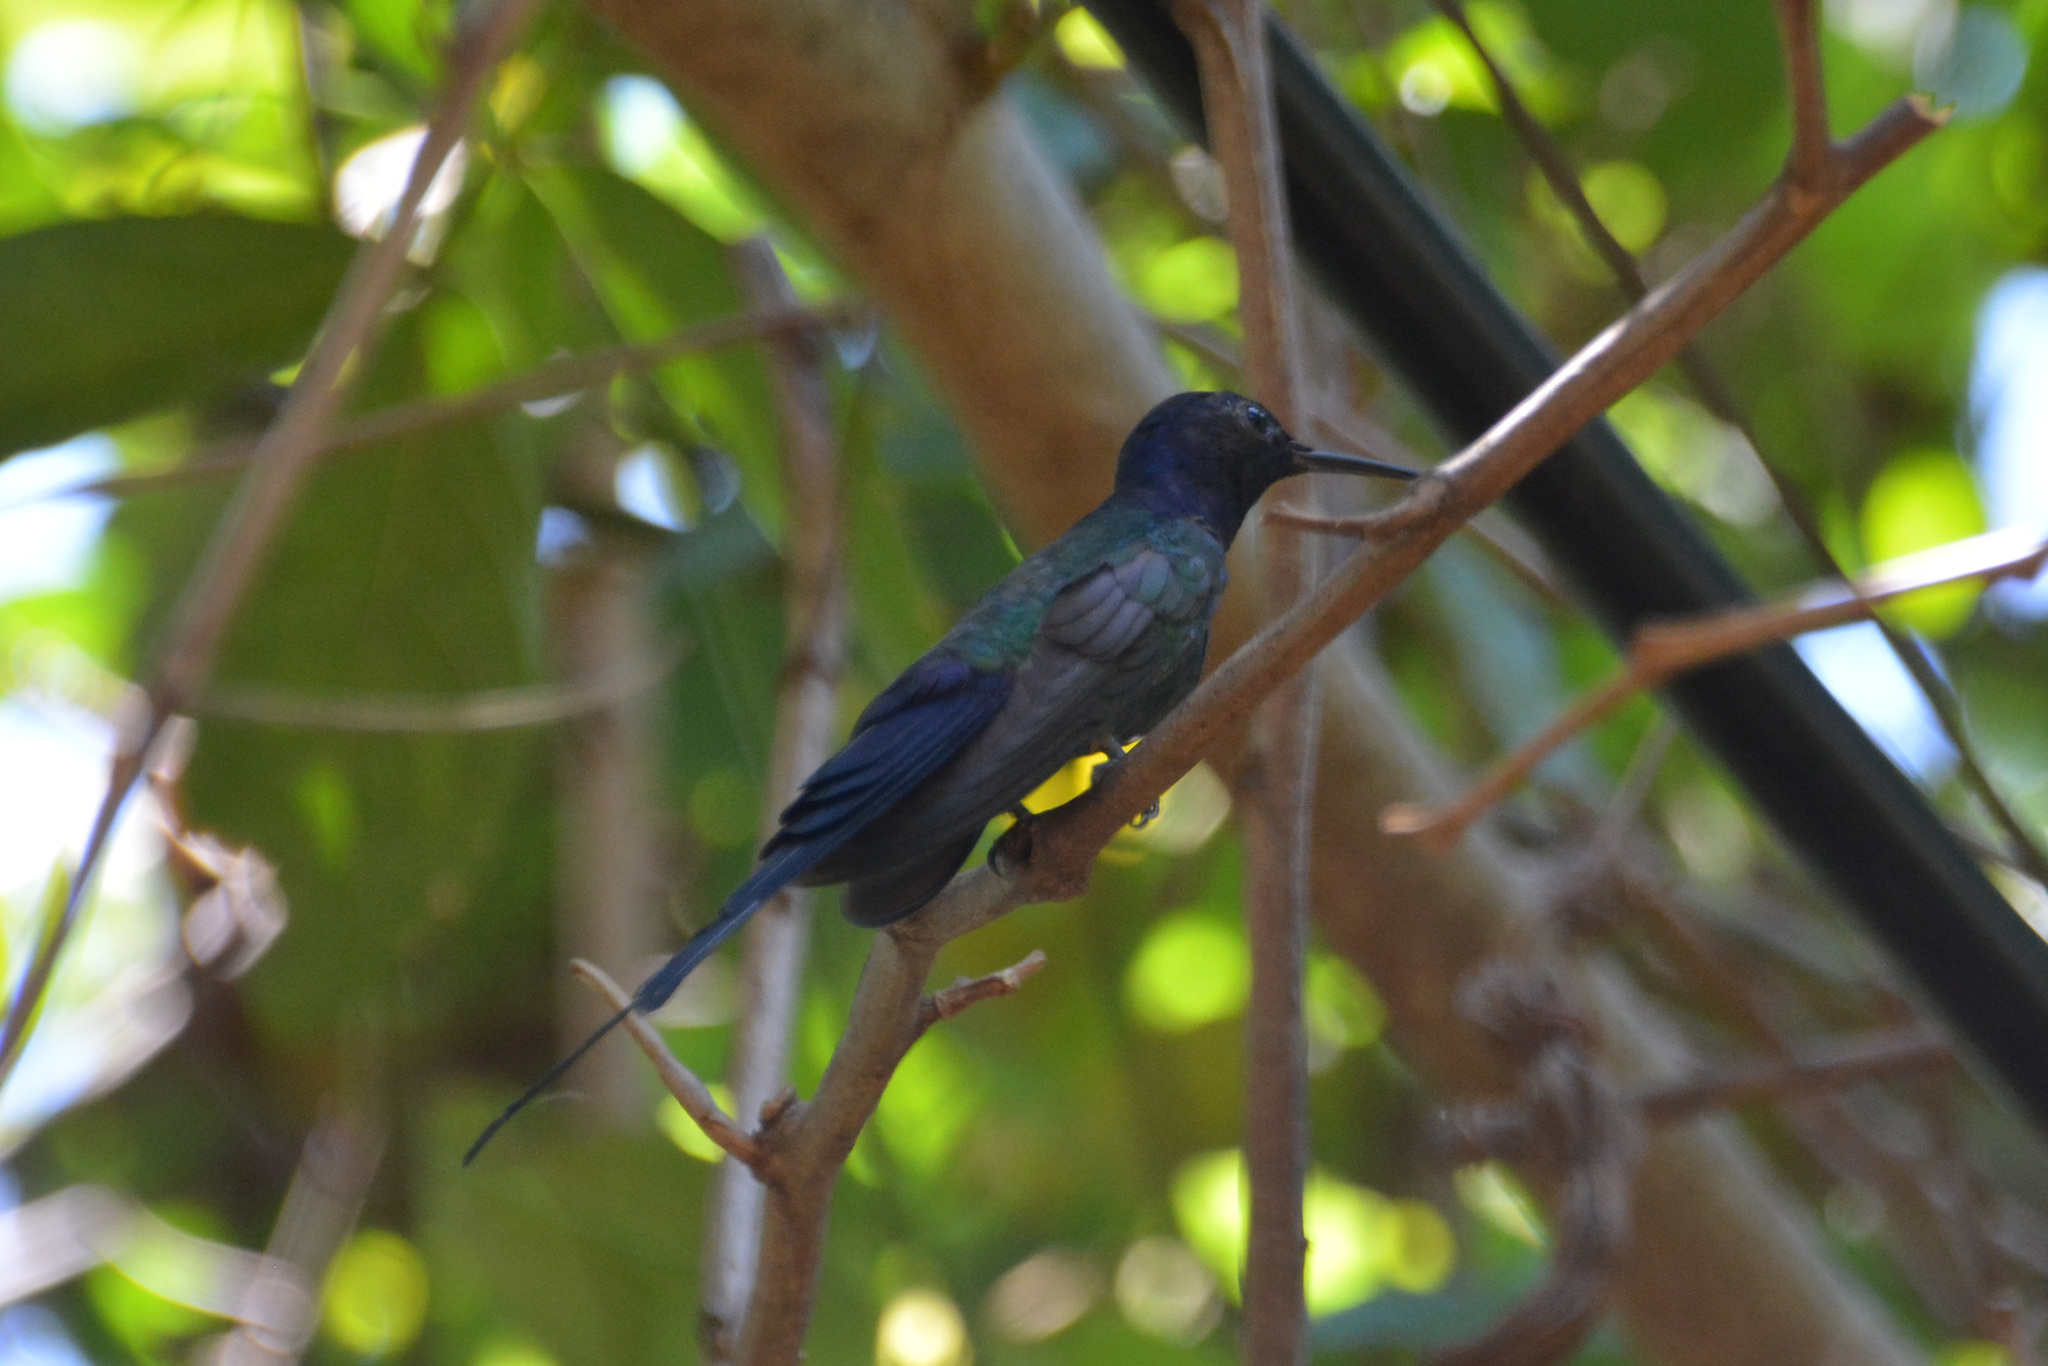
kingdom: Animalia
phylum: Chordata
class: Aves
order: Apodiformes
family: Trochilidae
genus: Eupetomena
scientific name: Eupetomena macroura
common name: Swallow-tailed hummingbird
